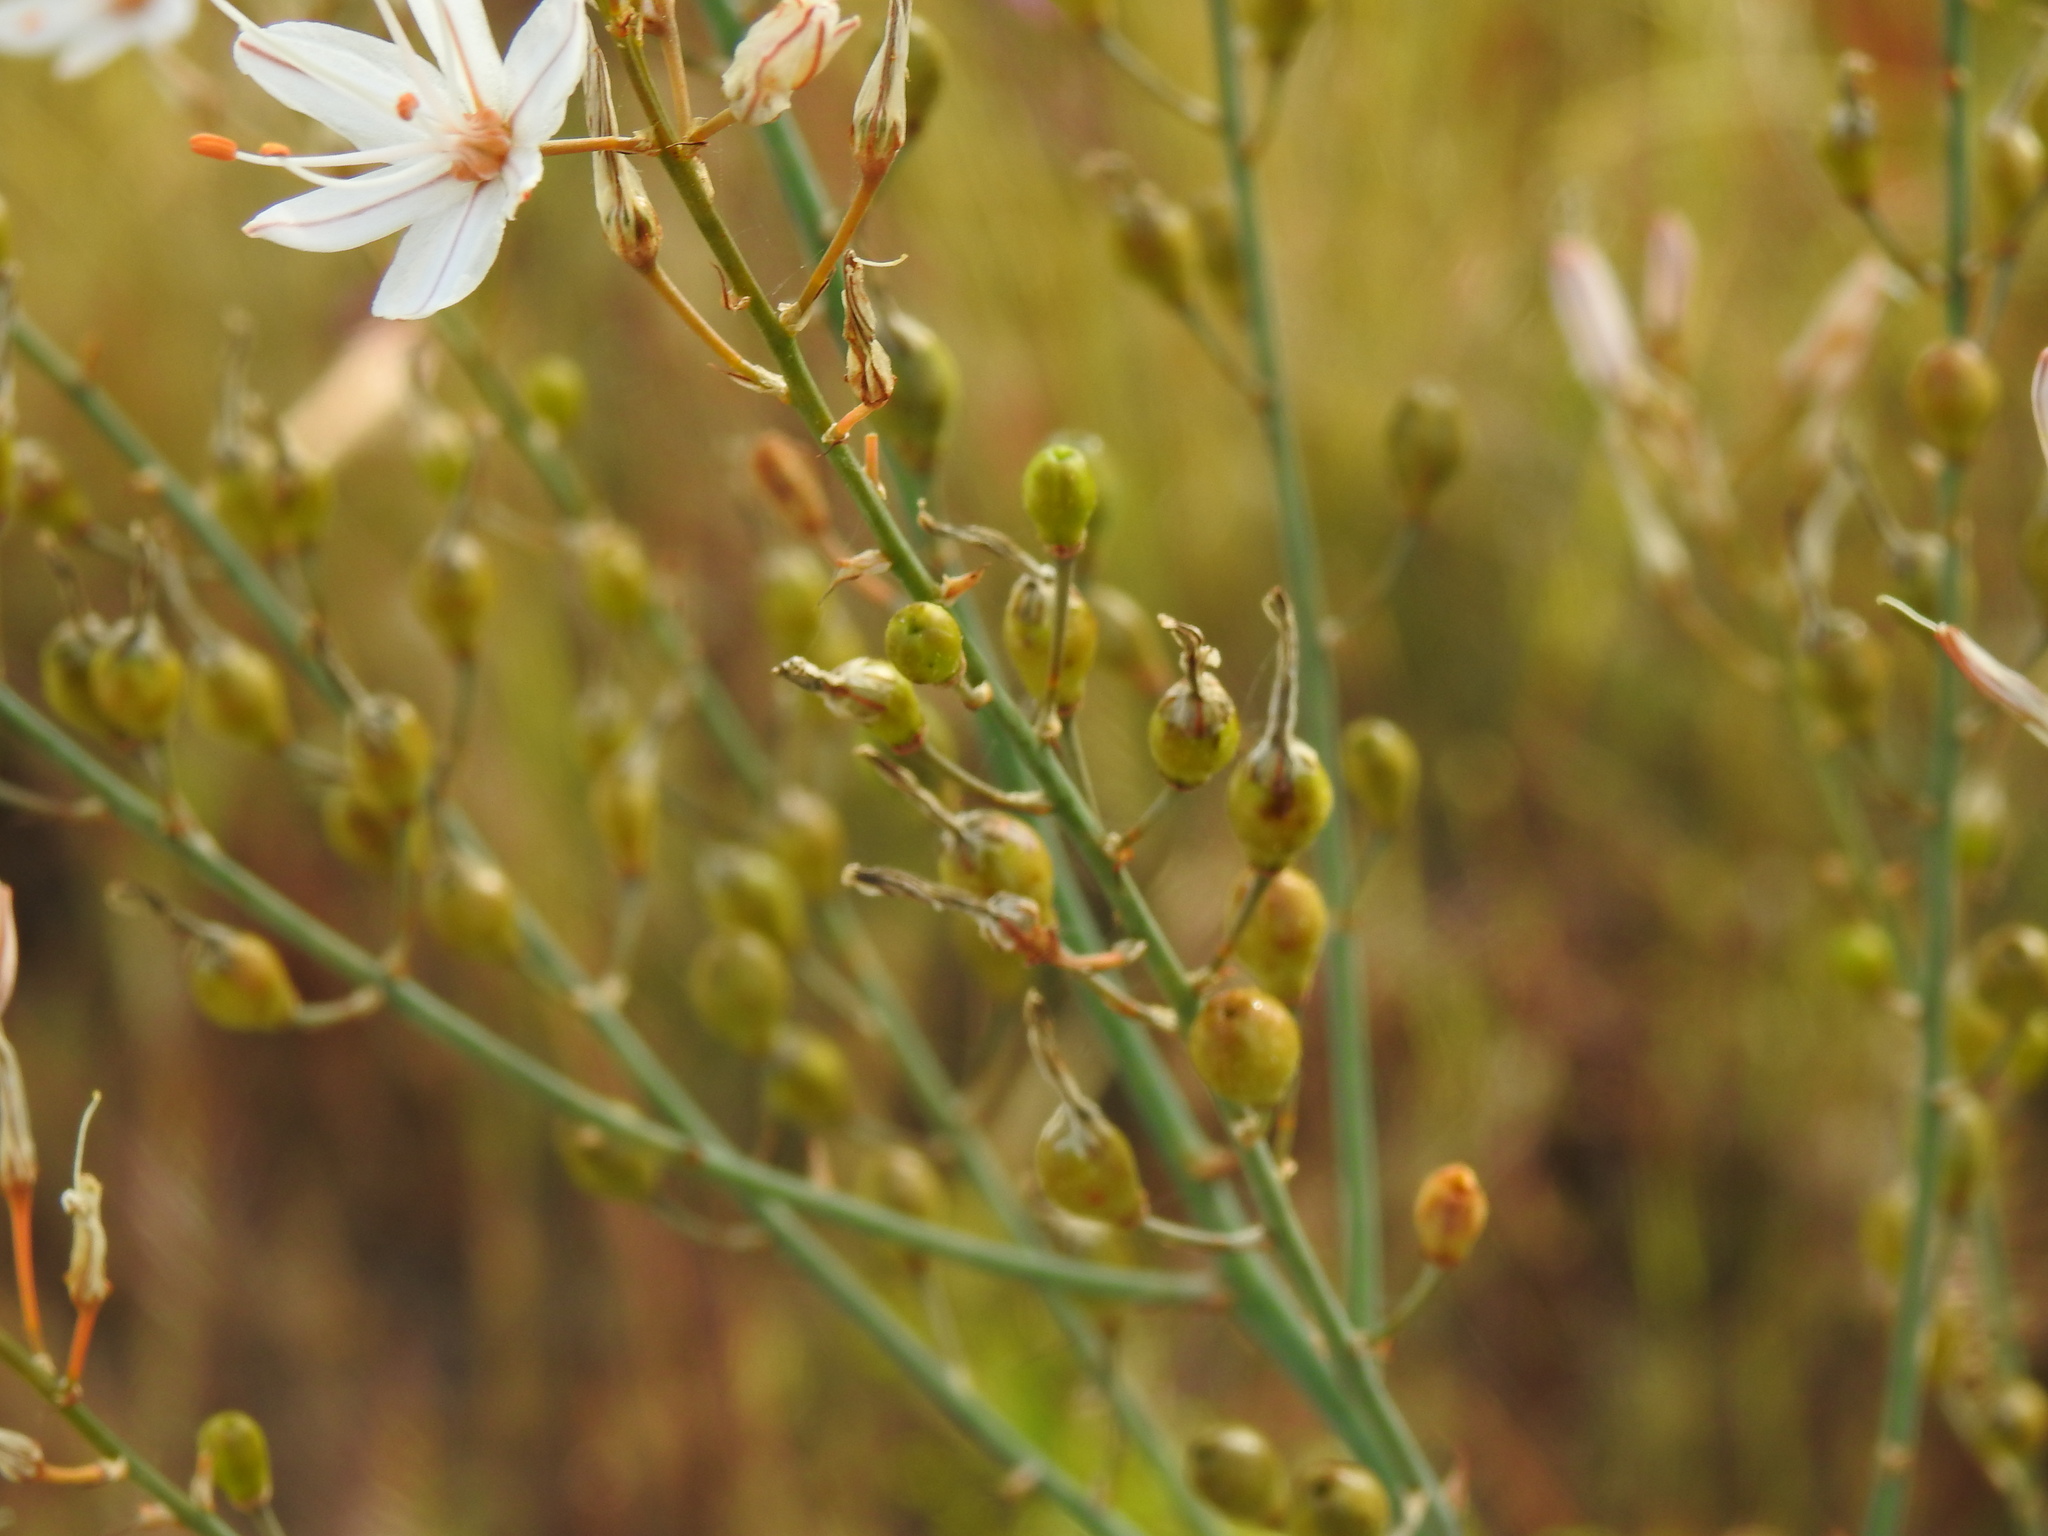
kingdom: Plantae
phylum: Tracheophyta
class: Liliopsida
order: Asparagales
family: Asphodelaceae
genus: Asphodelus
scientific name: Asphodelus serotinus
